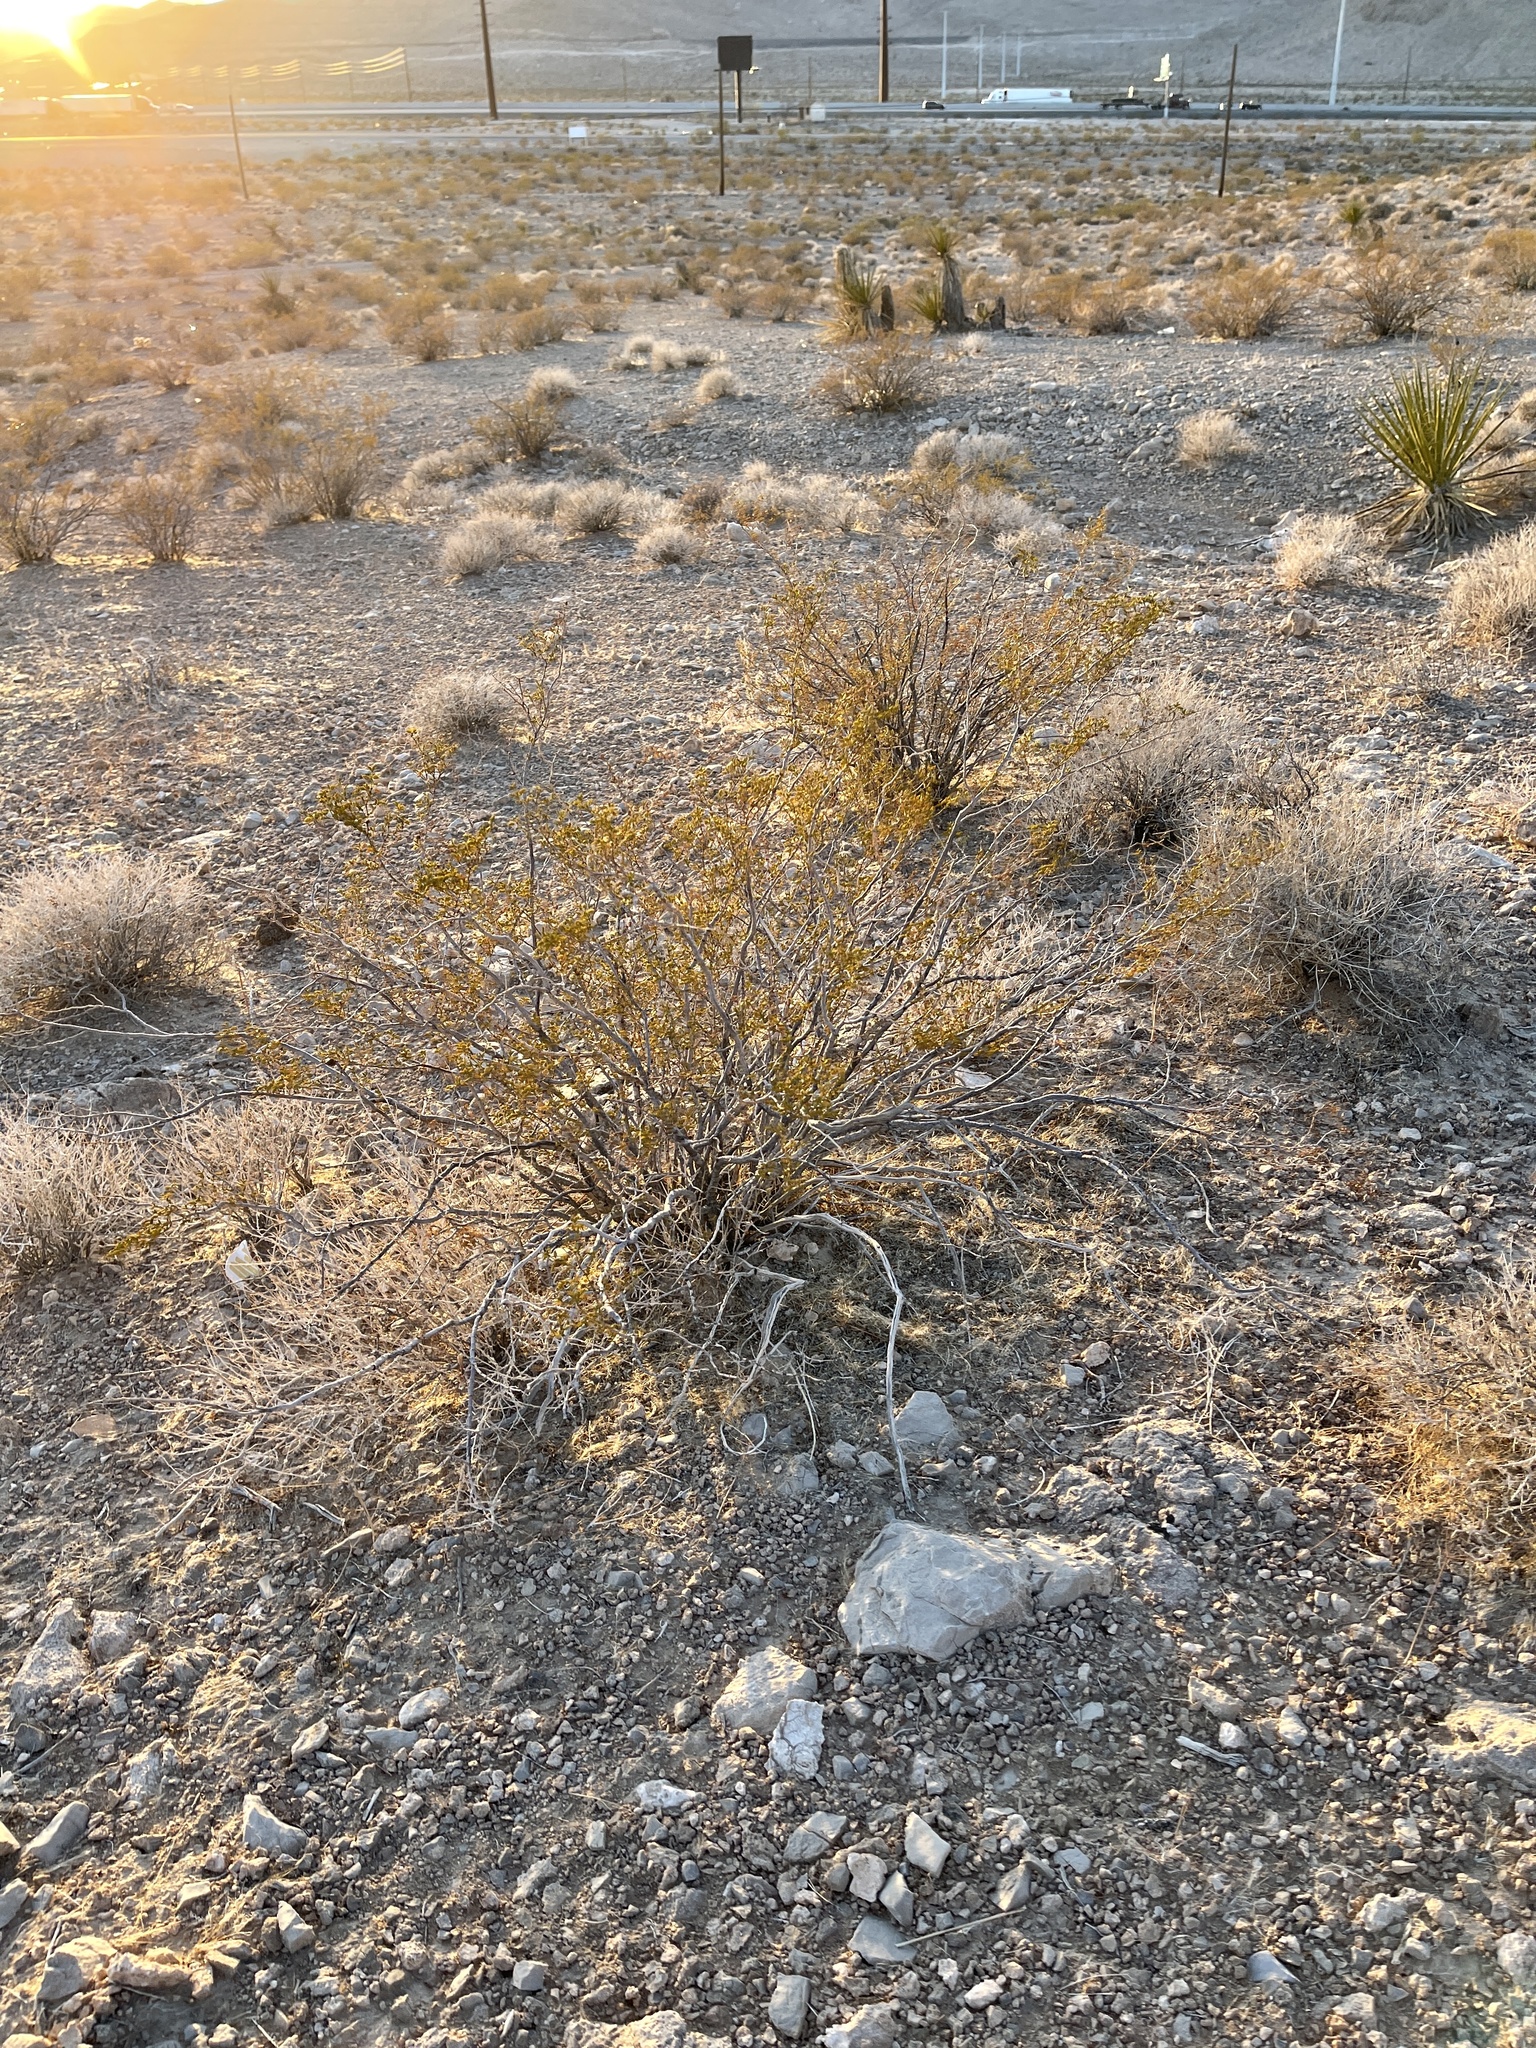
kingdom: Plantae
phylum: Tracheophyta
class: Magnoliopsida
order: Zygophyllales
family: Zygophyllaceae
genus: Larrea
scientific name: Larrea tridentata
